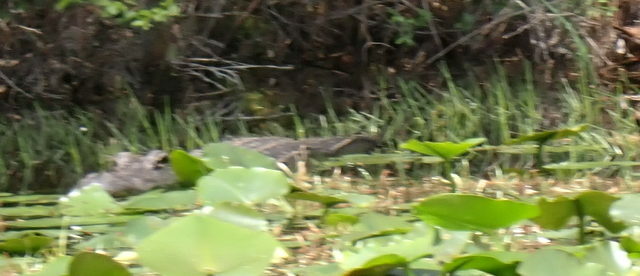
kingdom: Animalia
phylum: Chordata
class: Crocodylia
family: Alligatoridae
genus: Alligator
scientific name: Alligator mississippiensis
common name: American alligator
